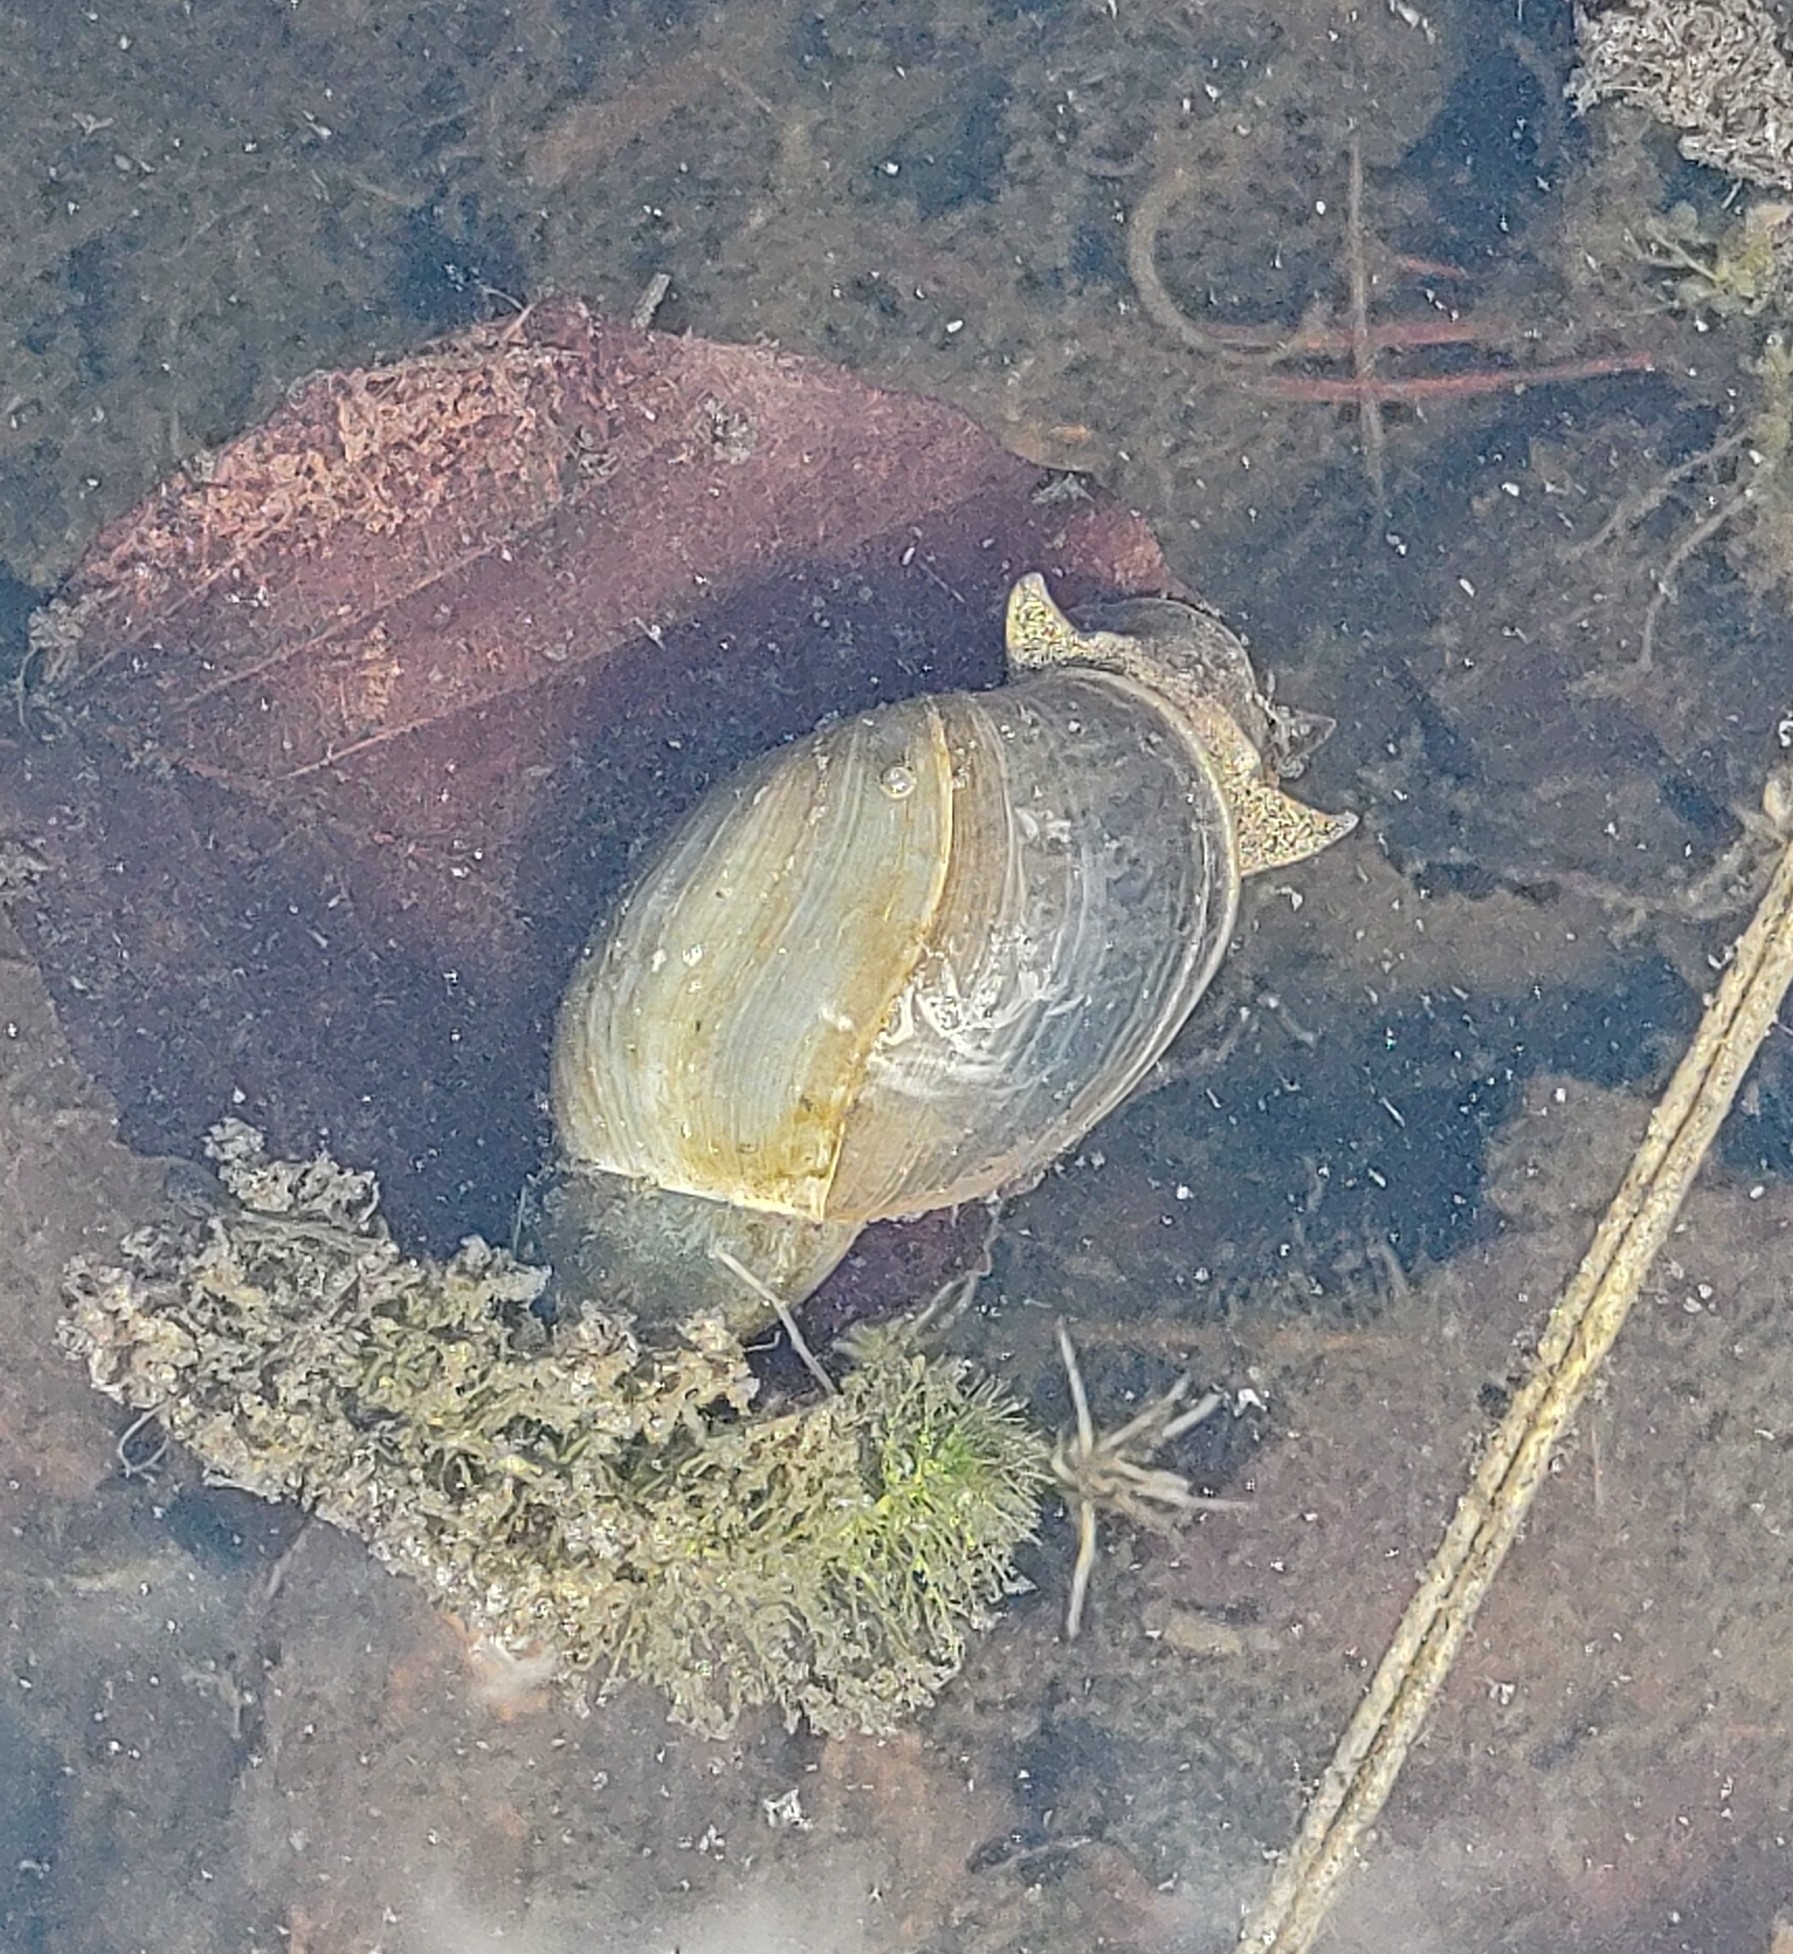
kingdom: Animalia
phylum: Mollusca
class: Gastropoda
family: Lymnaeidae
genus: Lymnaea
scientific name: Lymnaea stagnalis
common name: Great pond snail
